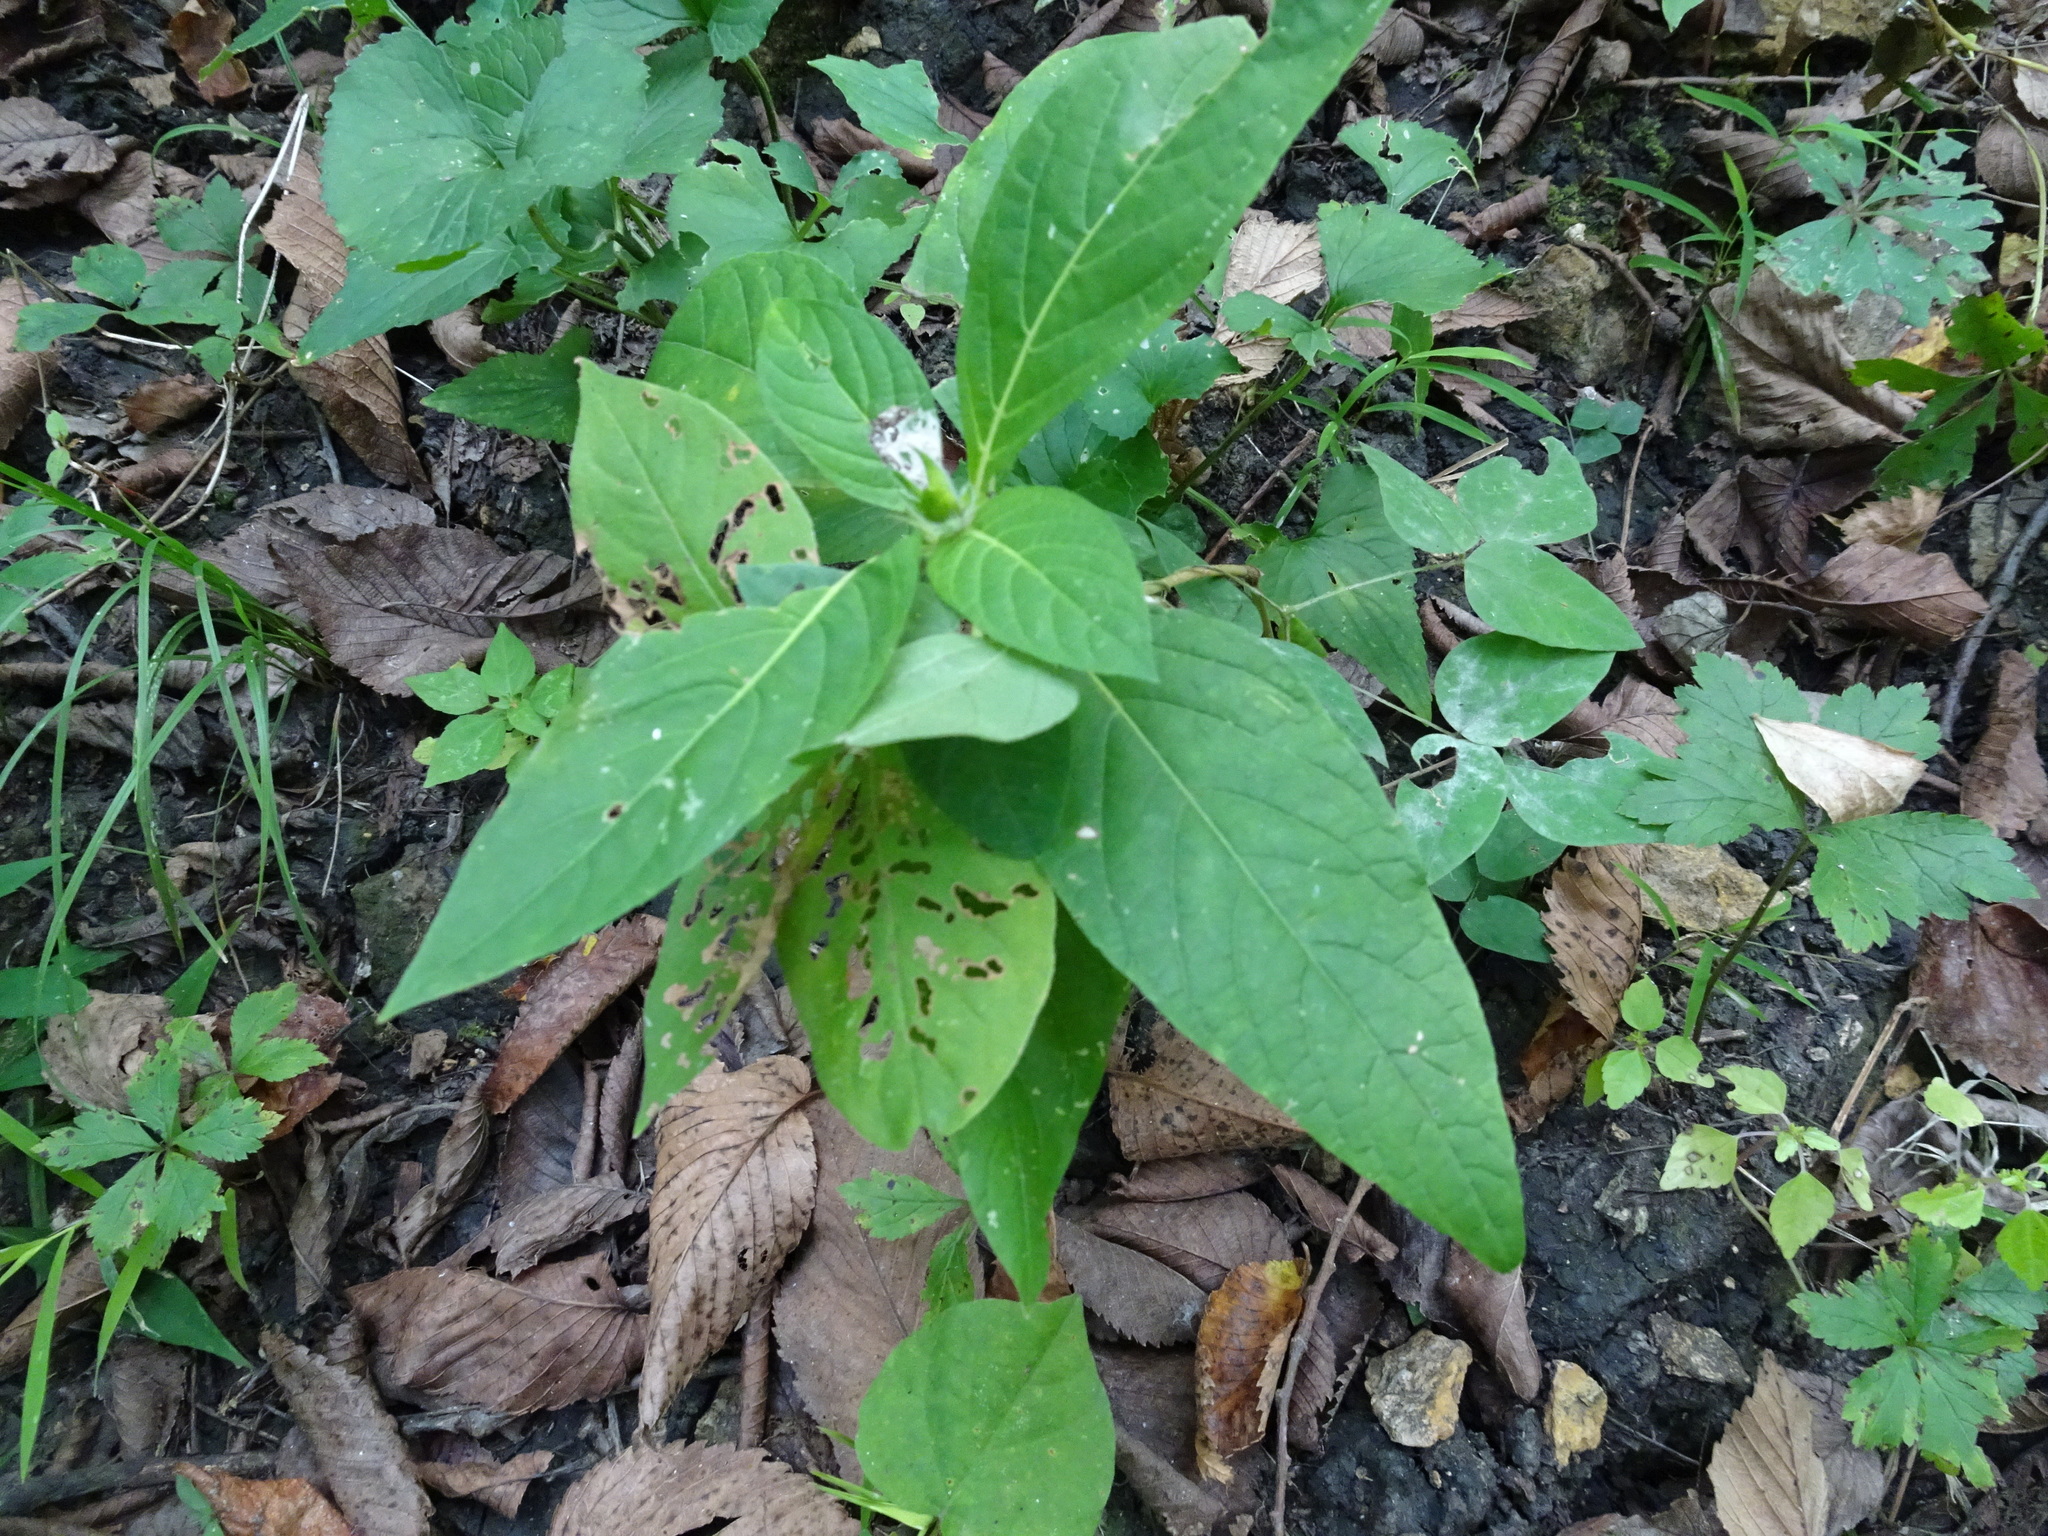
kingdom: Plantae
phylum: Tracheophyta
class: Magnoliopsida
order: Lamiales
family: Acanthaceae
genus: Ruellia
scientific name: Ruellia strepens
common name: Limestone wild petunia
